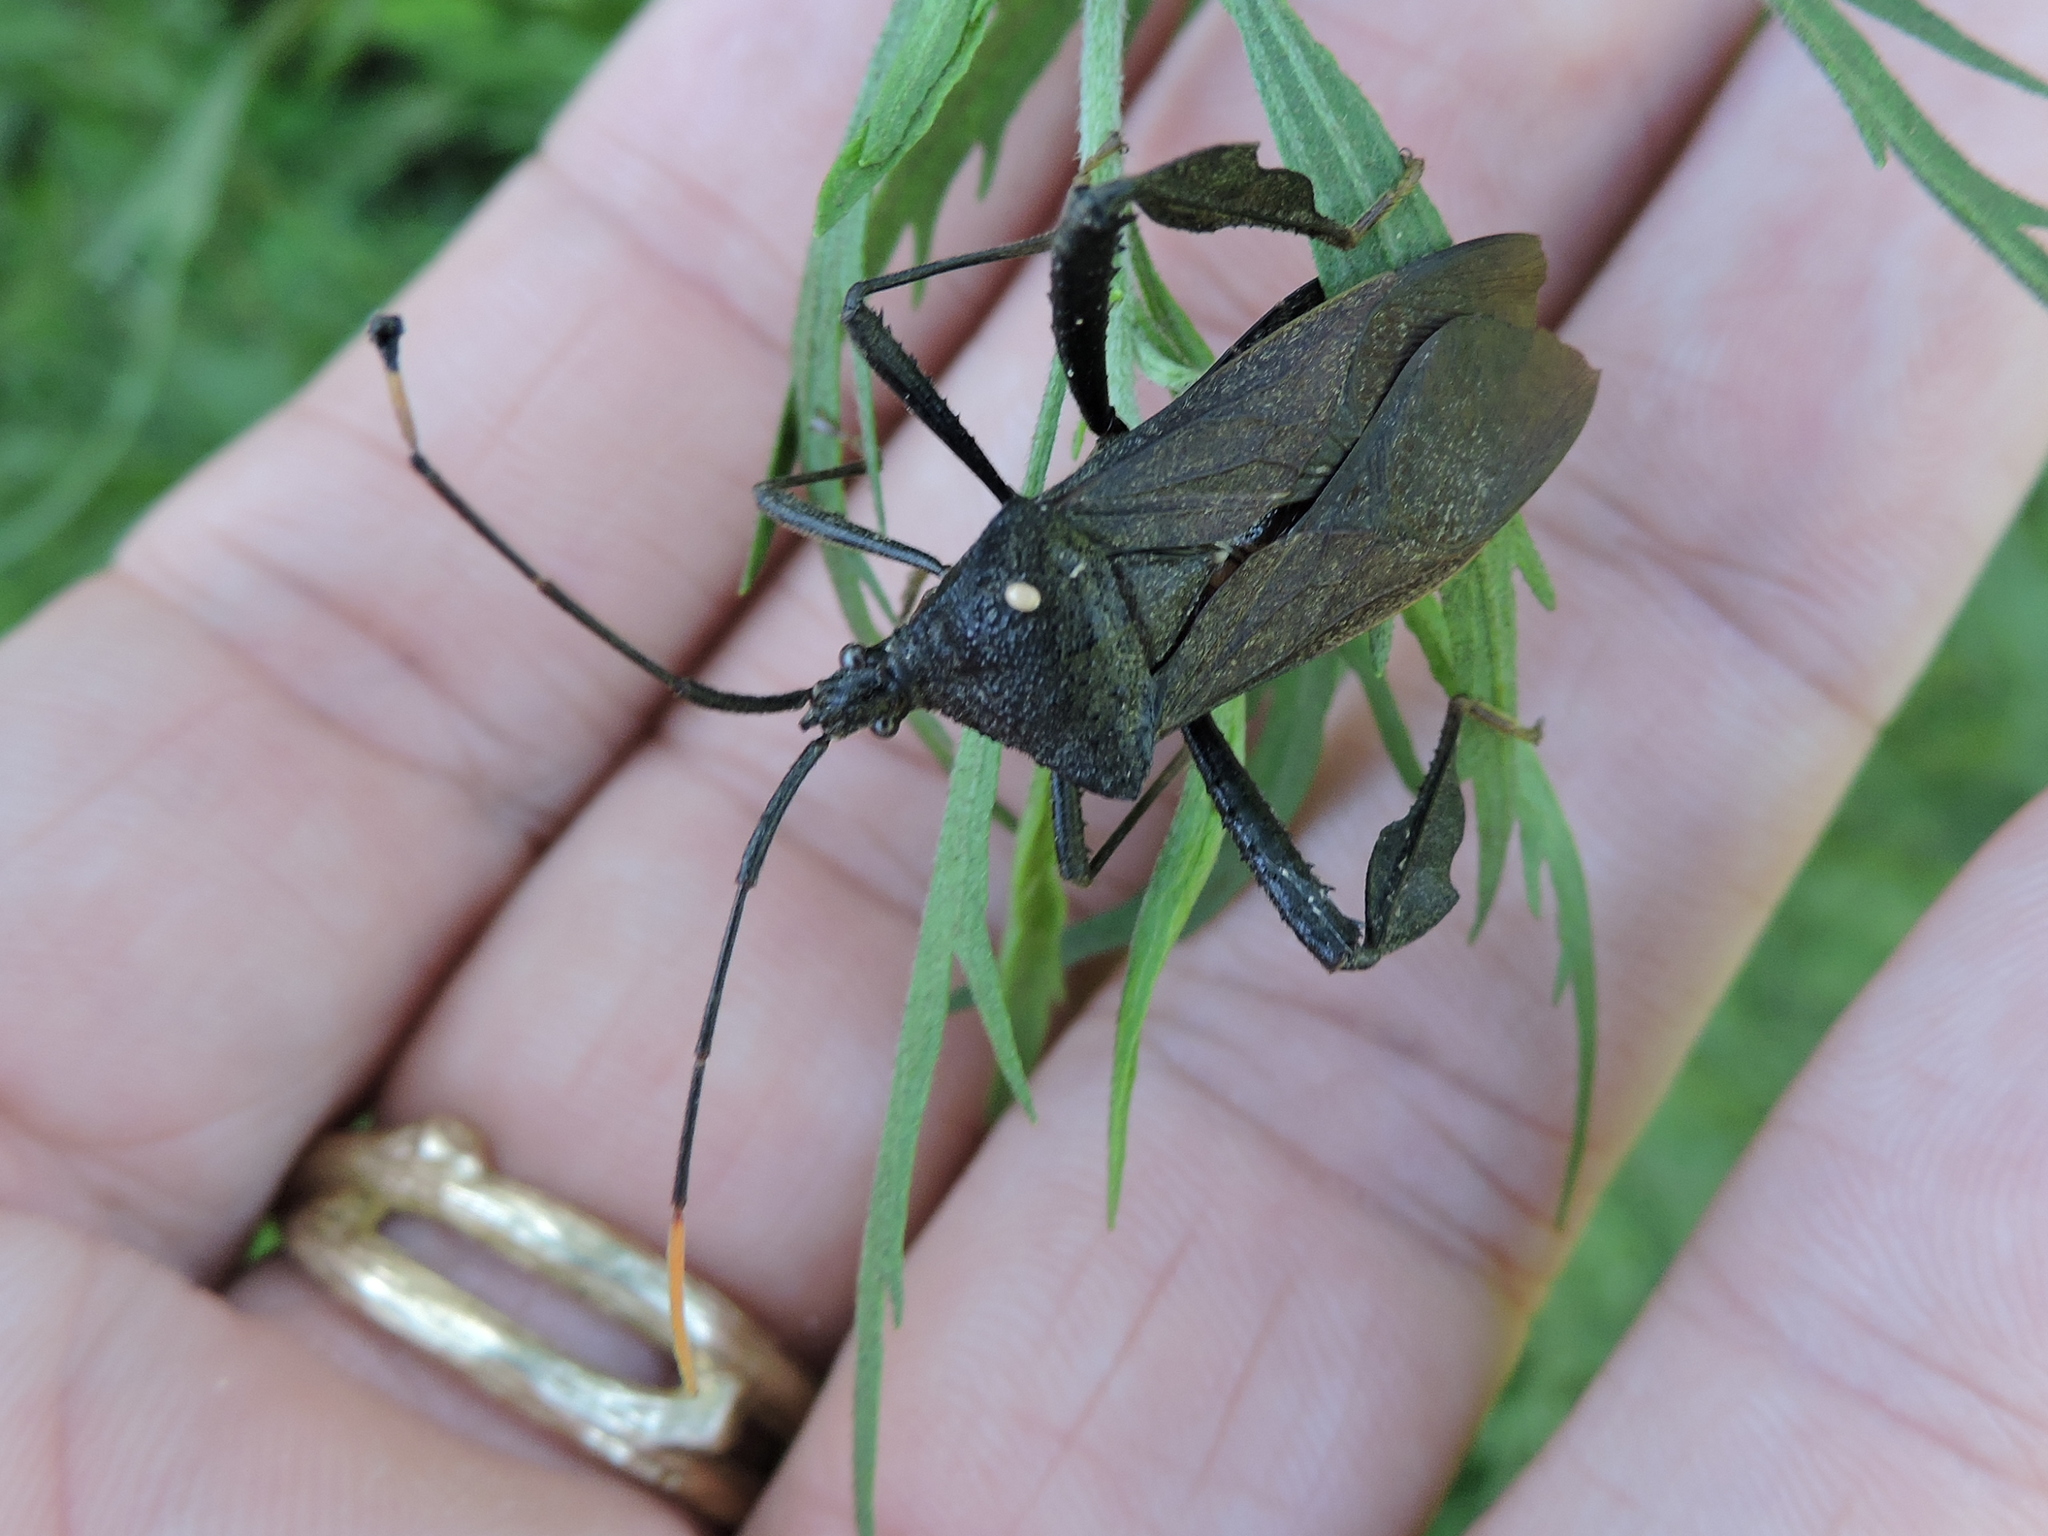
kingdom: Animalia
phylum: Arthropoda
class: Insecta
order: Hemiptera
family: Coreidae
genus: Acanthocephala
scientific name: Acanthocephala terminalis
